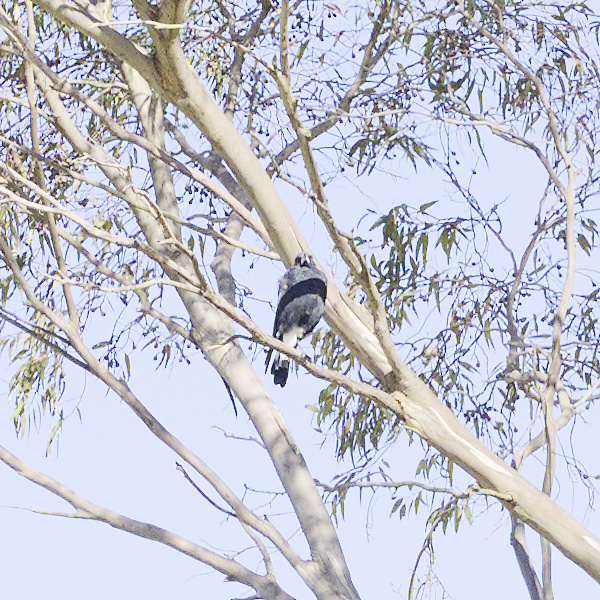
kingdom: Animalia
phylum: Chordata
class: Aves
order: Passeriformes
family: Cracticidae
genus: Gymnorhina
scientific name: Gymnorhina tibicen
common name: Australian magpie
